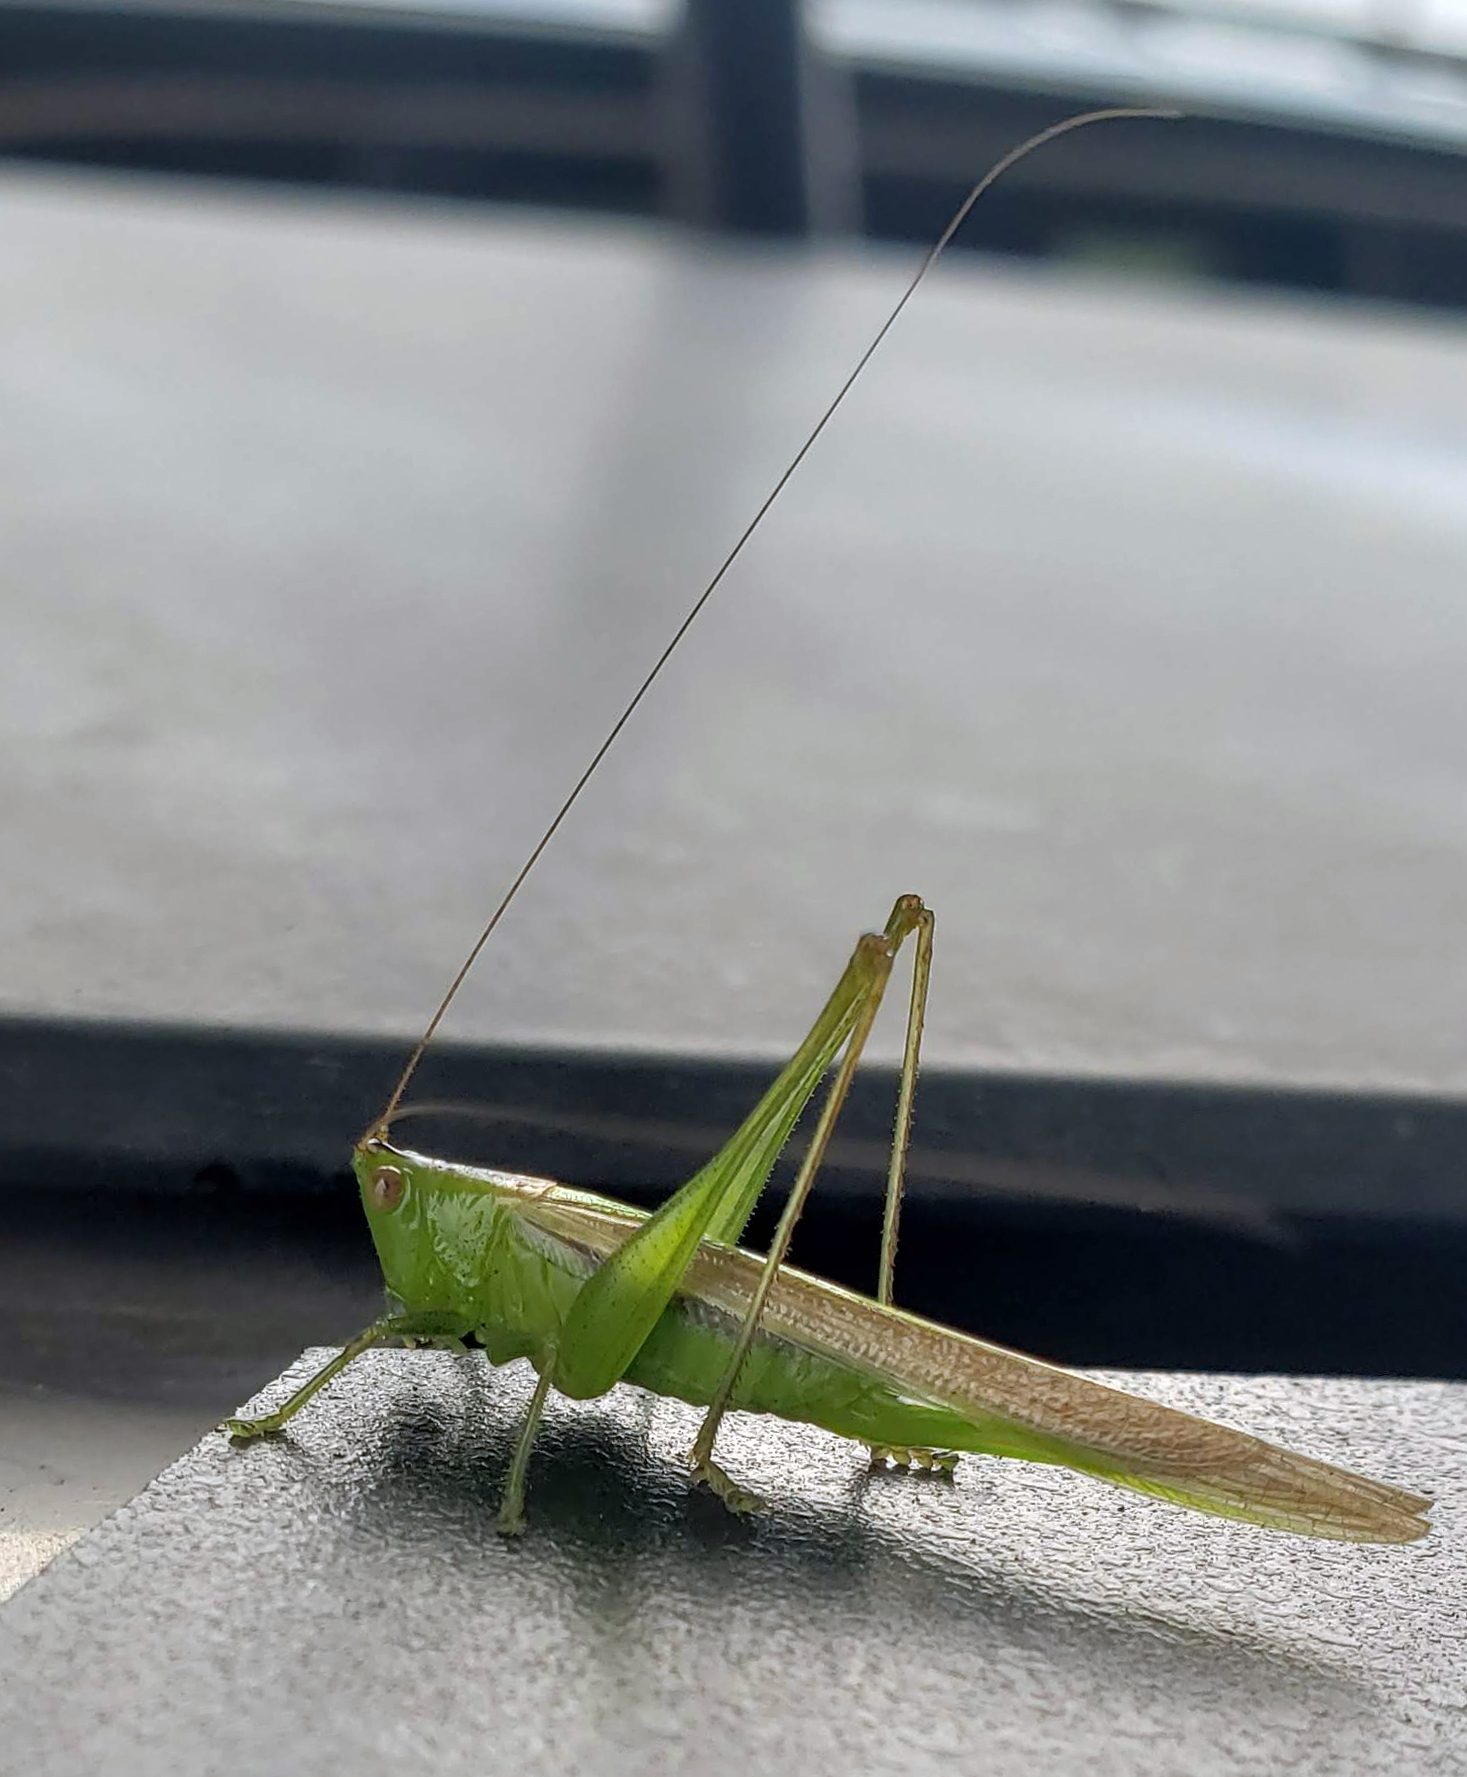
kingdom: Animalia
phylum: Arthropoda
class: Insecta
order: Orthoptera
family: Tettigoniidae
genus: Conocephalus
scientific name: Conocephalus fasciatus
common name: Slender meadow katydid
